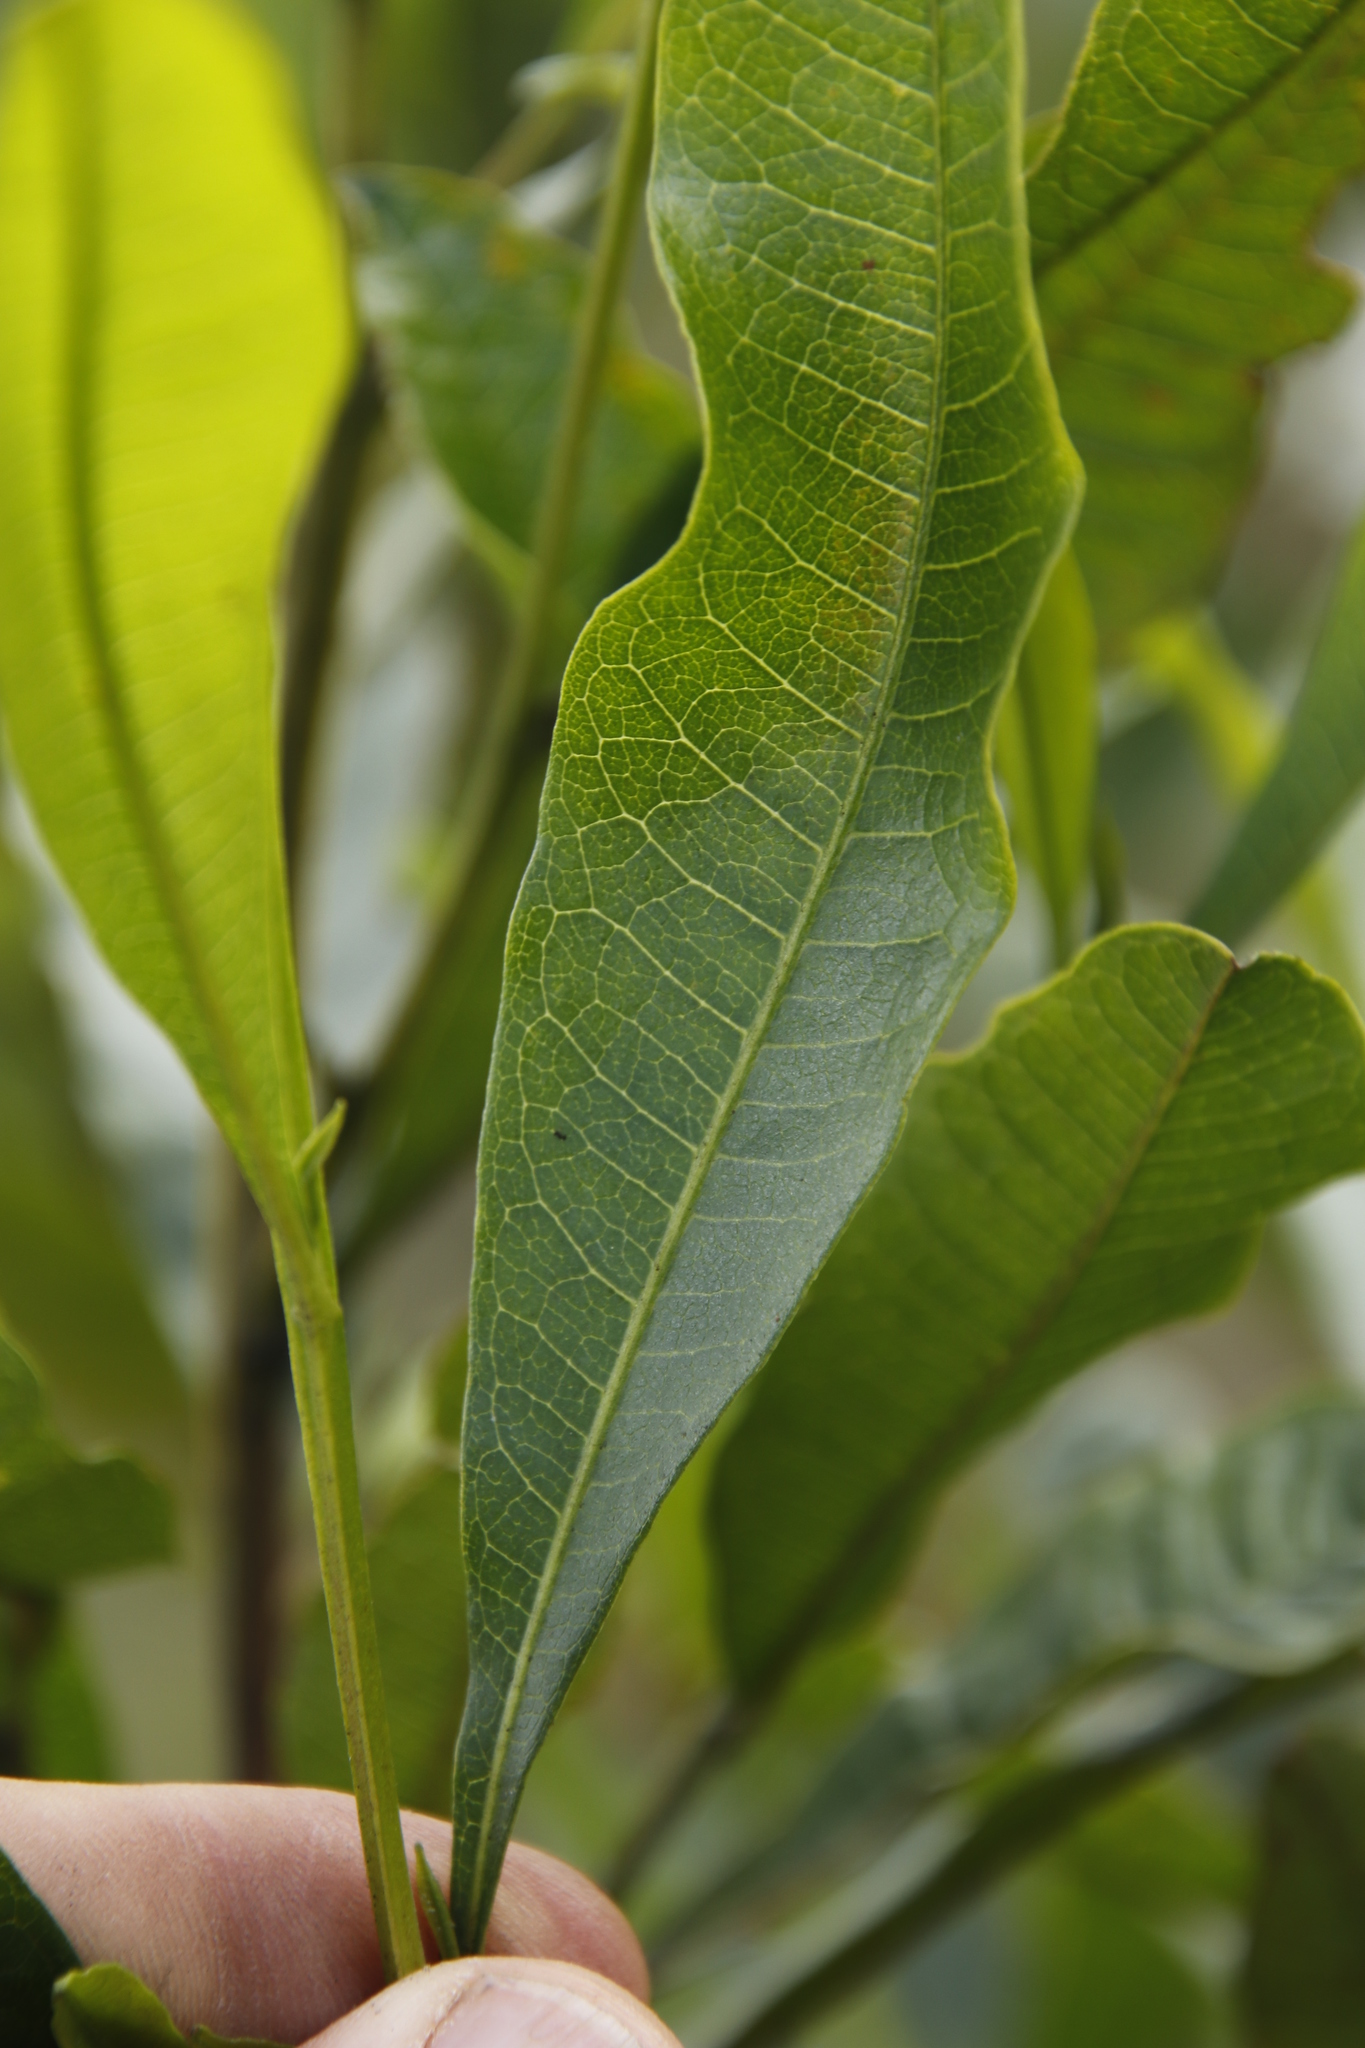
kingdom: Plantae
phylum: Tracheophyta
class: Magnoliopsida
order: Sapindales
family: Sapindaceae
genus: Dodonaea
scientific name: Dodonaea viscosa
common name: Hopbush
